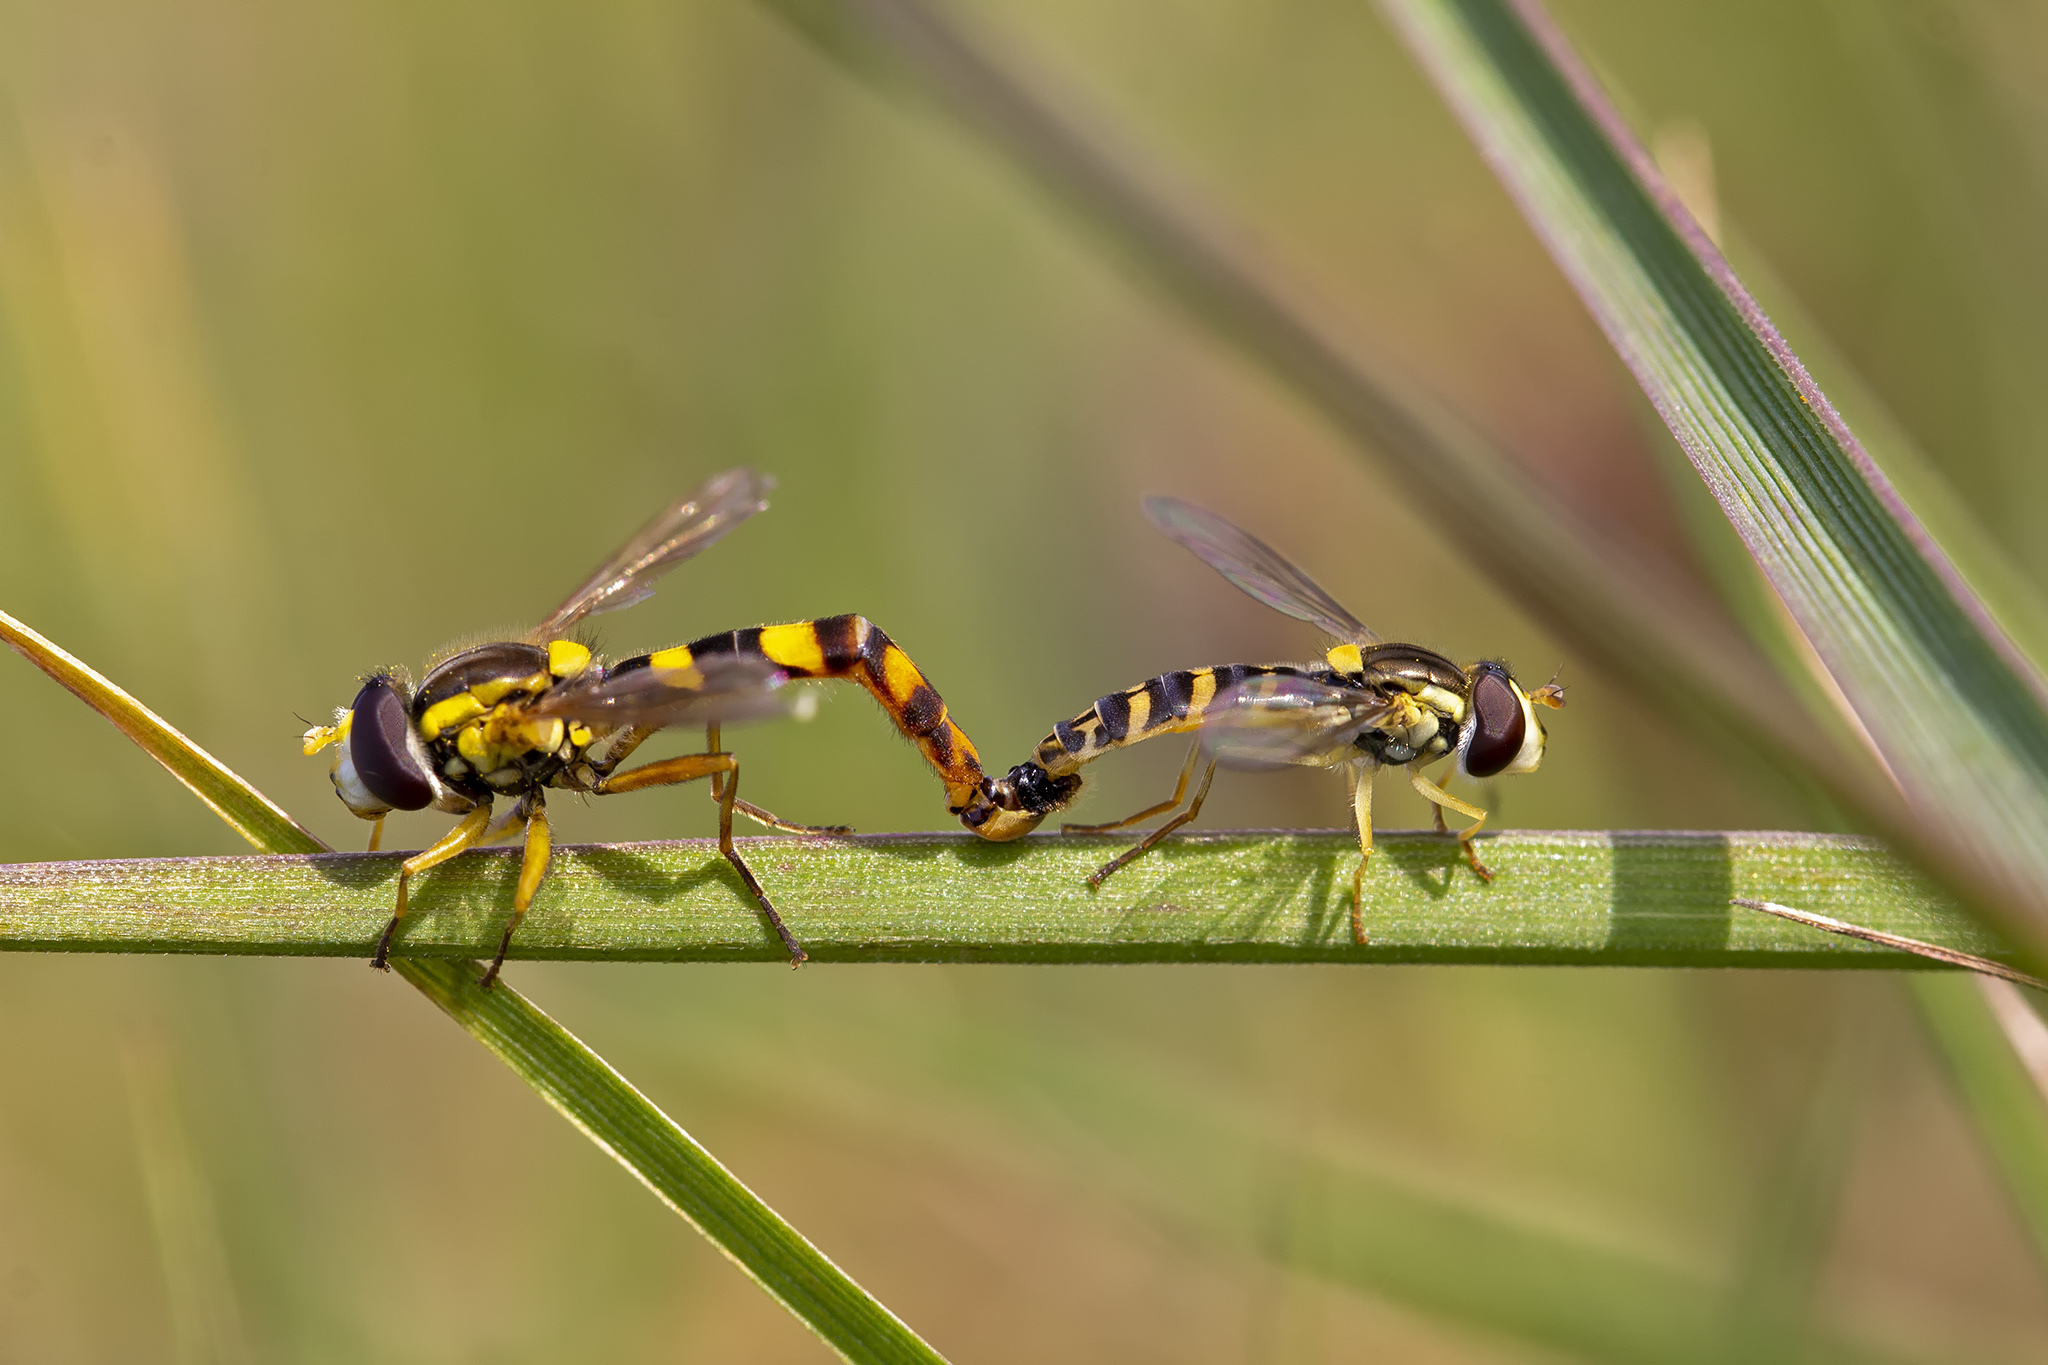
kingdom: Animalia
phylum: Arthropoda
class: Insecta
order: Diptera
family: Syrphidae
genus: Sphaerophoria
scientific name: Sphaerophoria scripta
